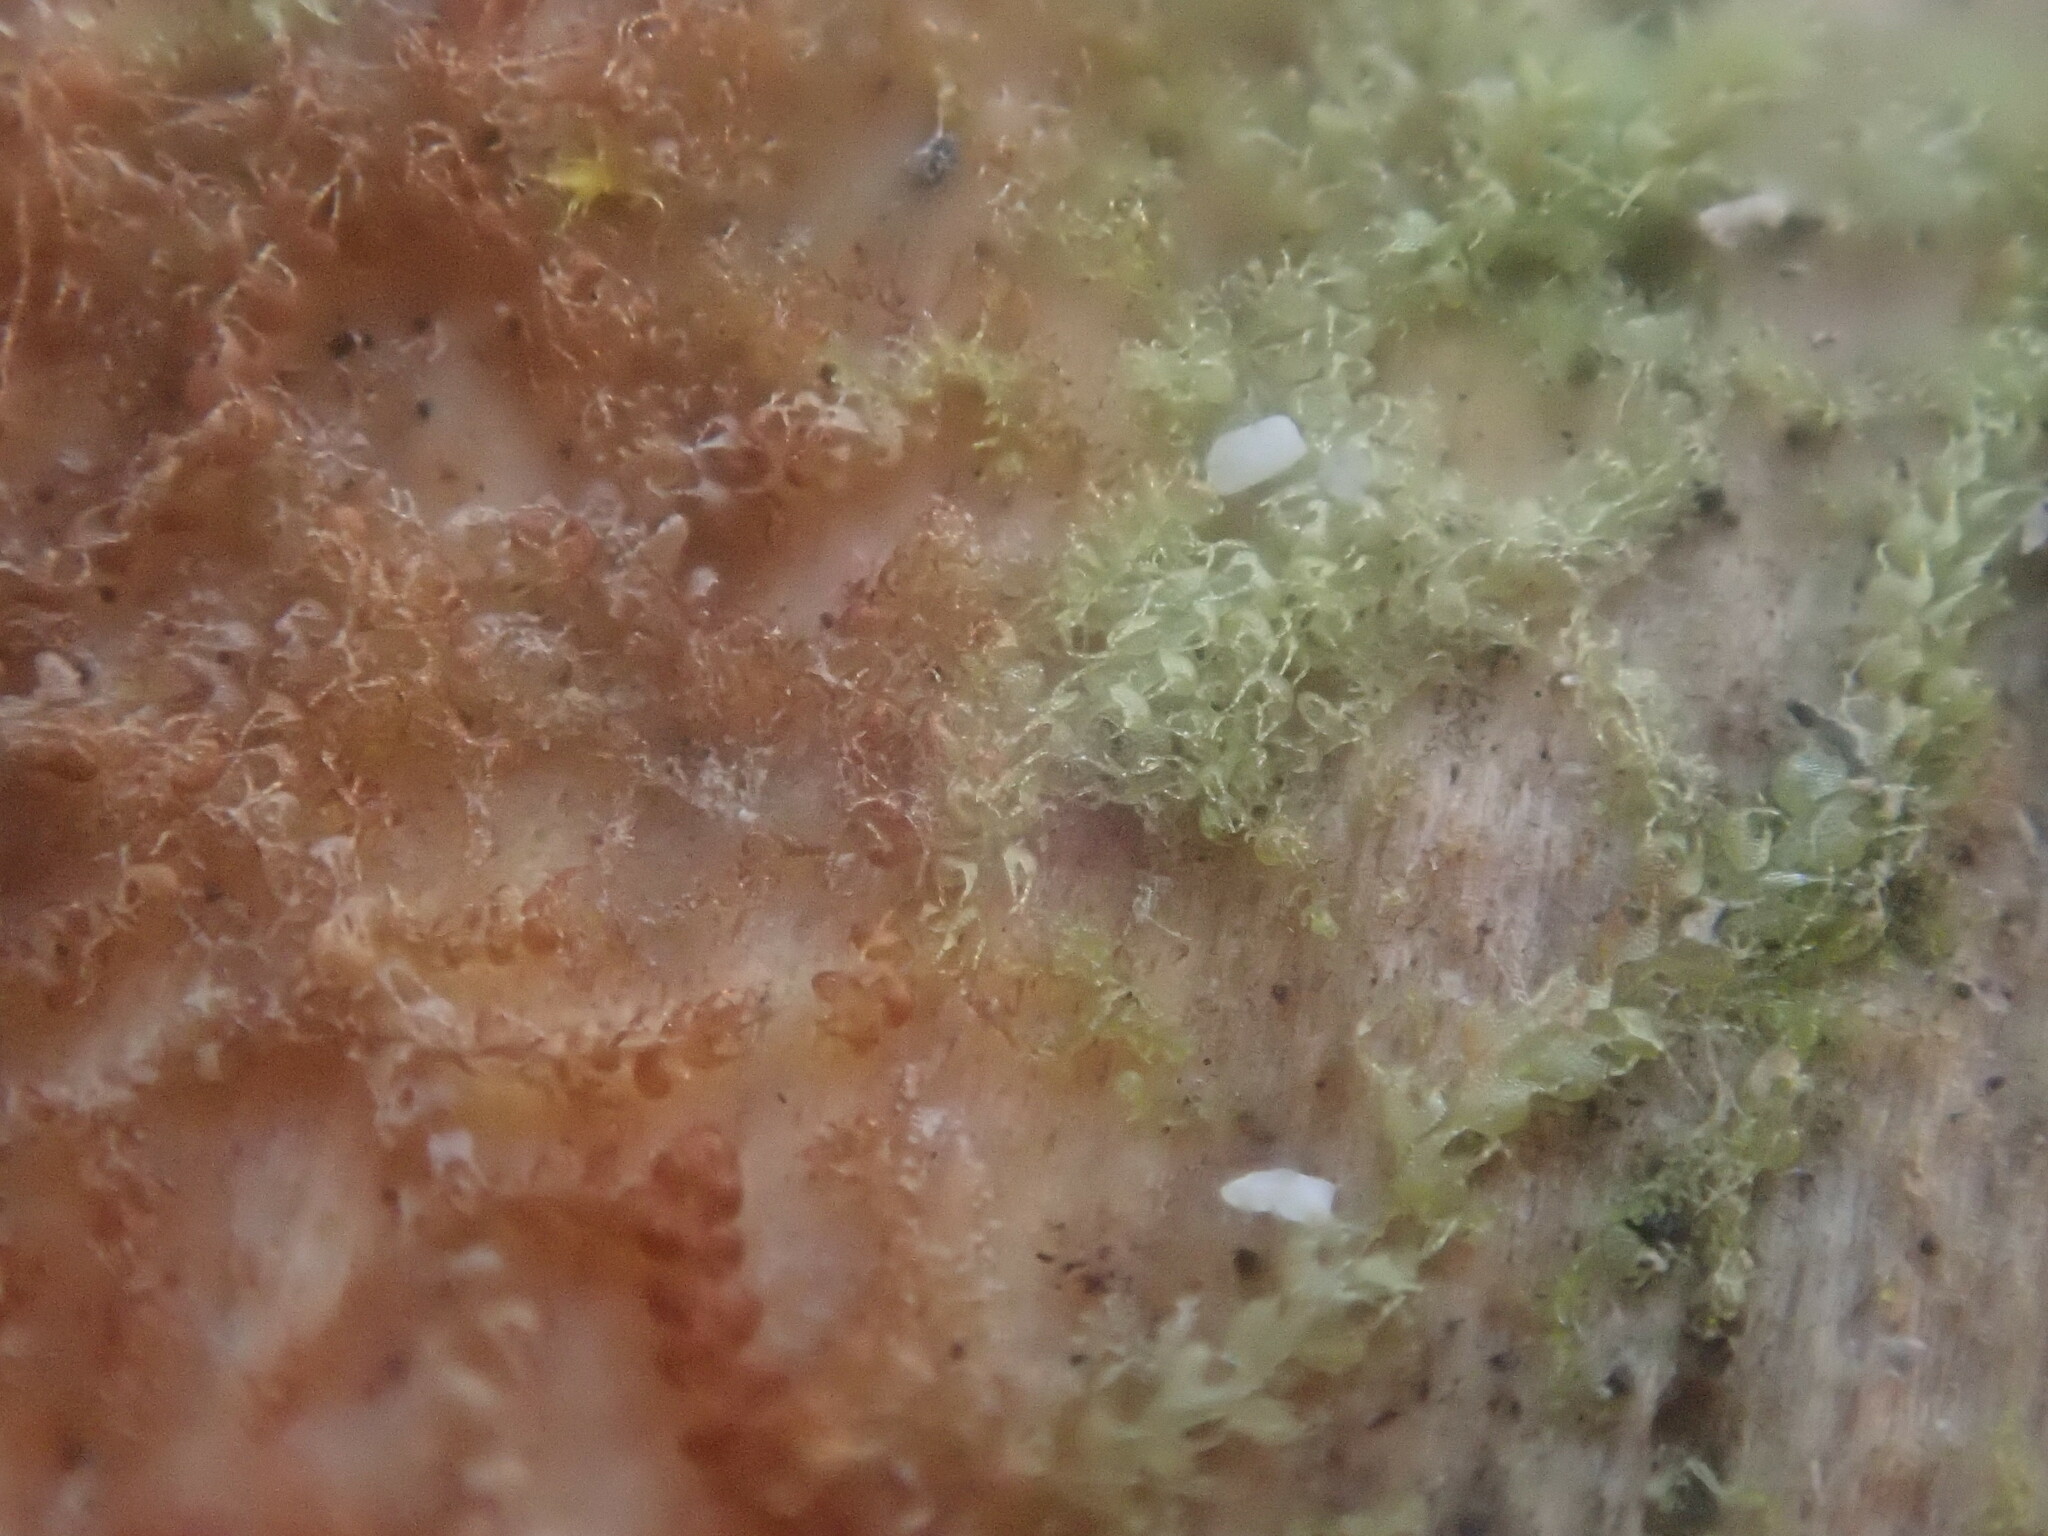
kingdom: Plantae
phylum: Marchantiophyta
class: Jungermanniopsida
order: Jungermanniales
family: Cephaloziaceae
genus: Nowellia
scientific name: Nowellia curvifolia
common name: Wood rustwort
